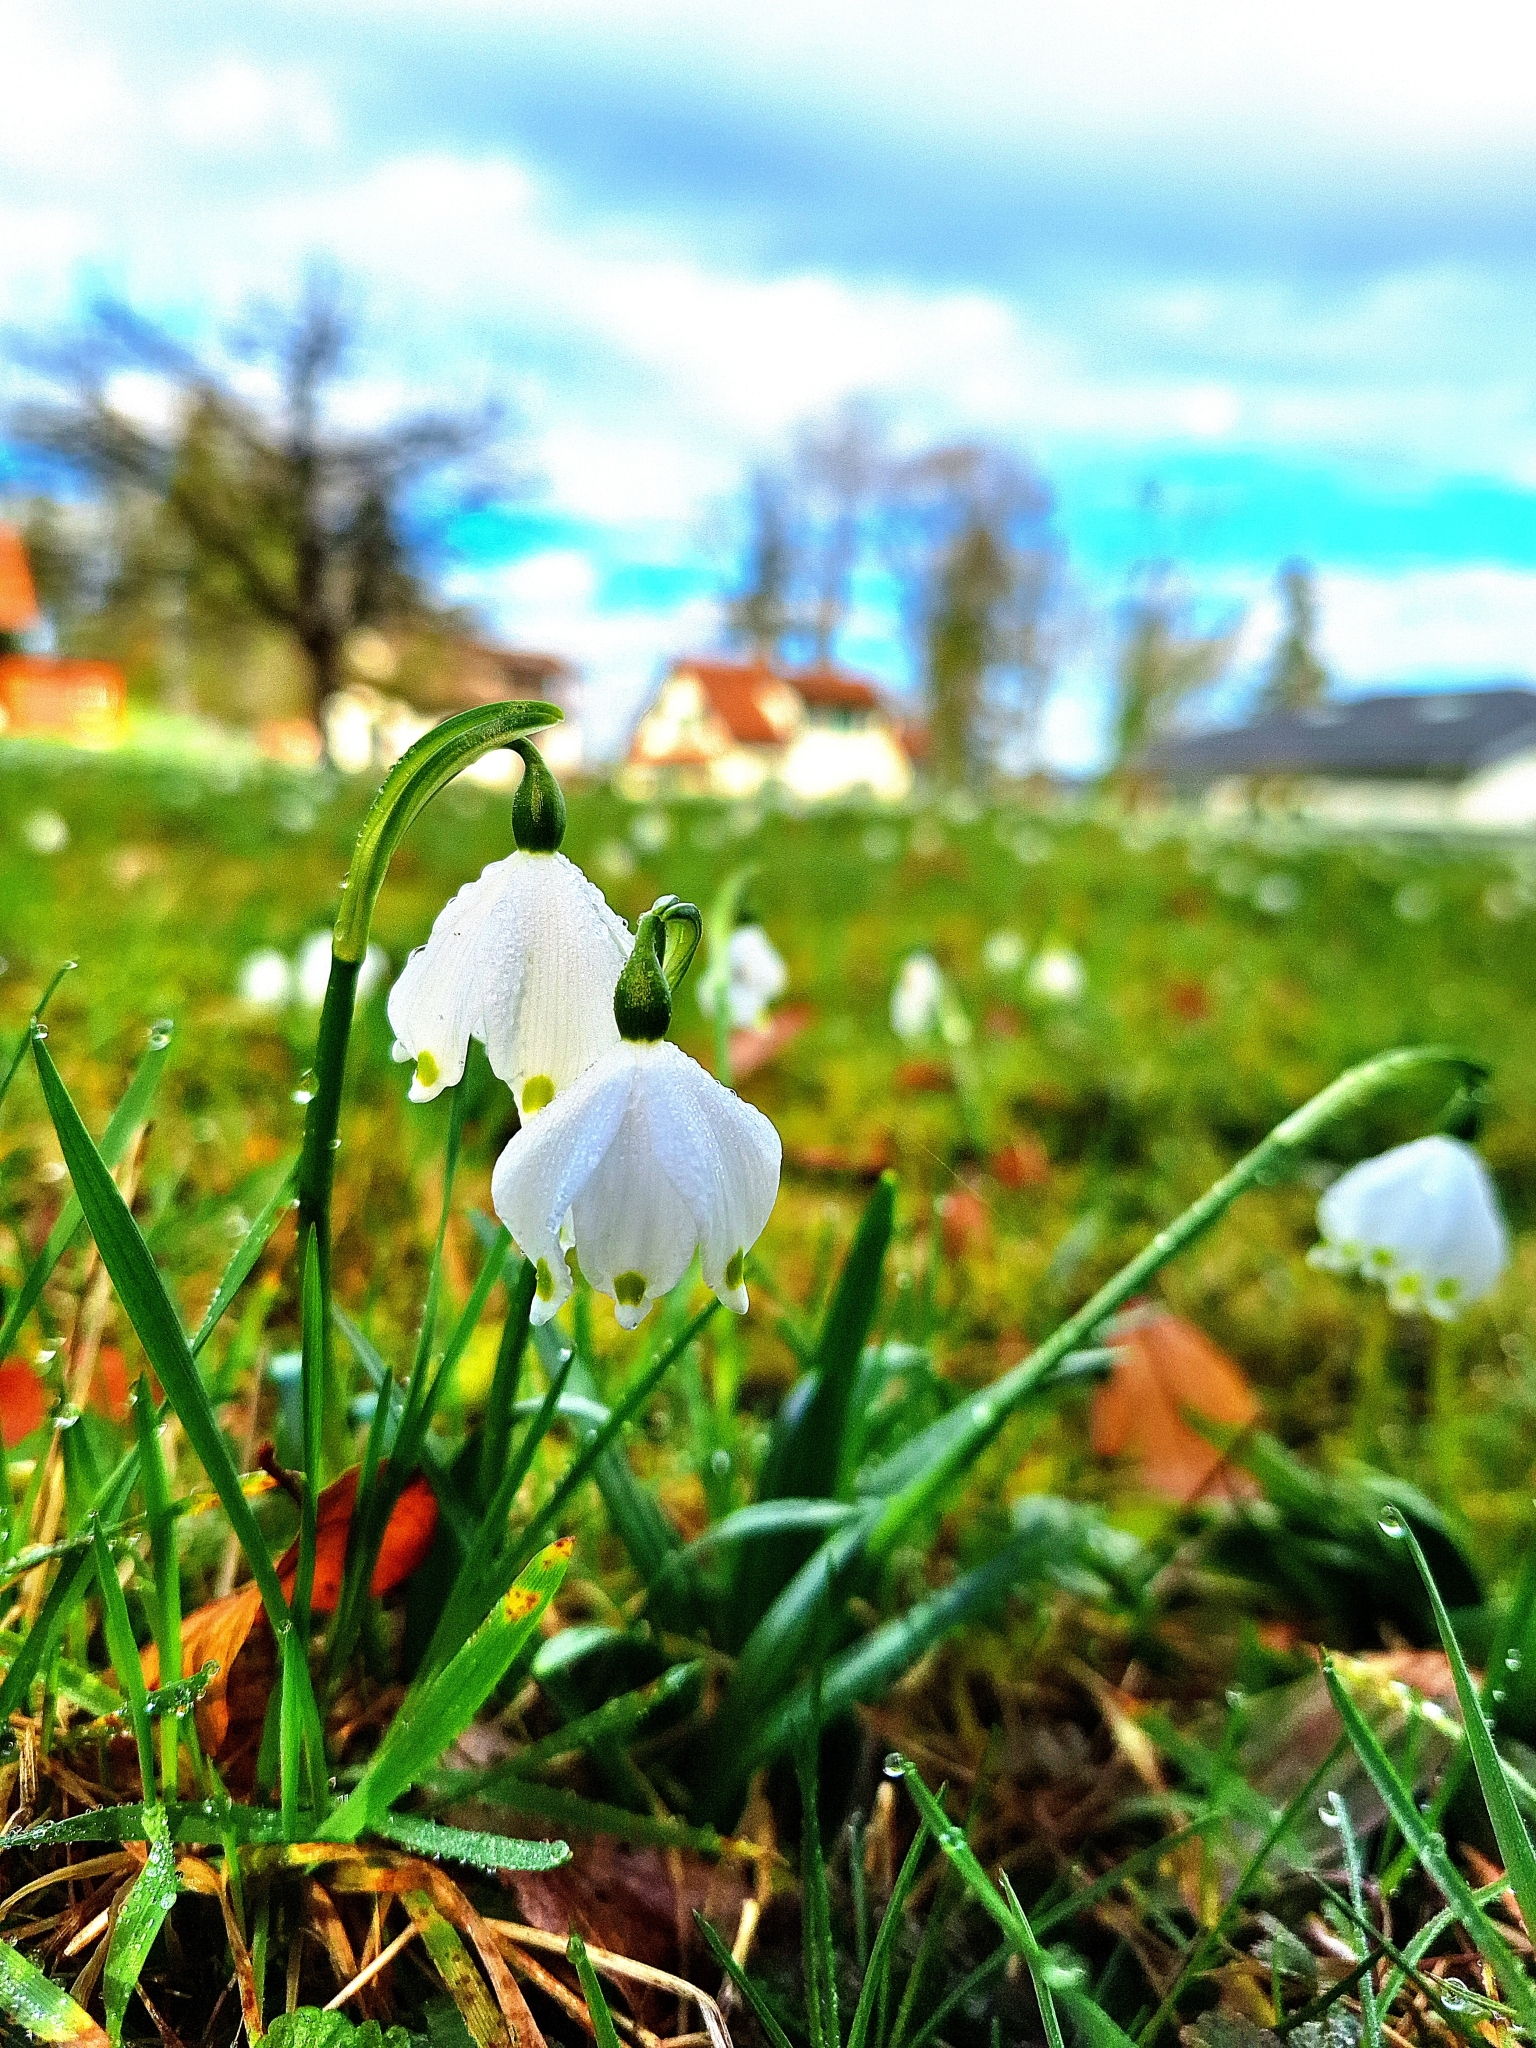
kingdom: Plantae
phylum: Tracheophyta
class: Liliopsida
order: Asparagales
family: Amaryllidaceae
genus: Leucojum
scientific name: Leucojum vernum
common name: Spring snowflake
